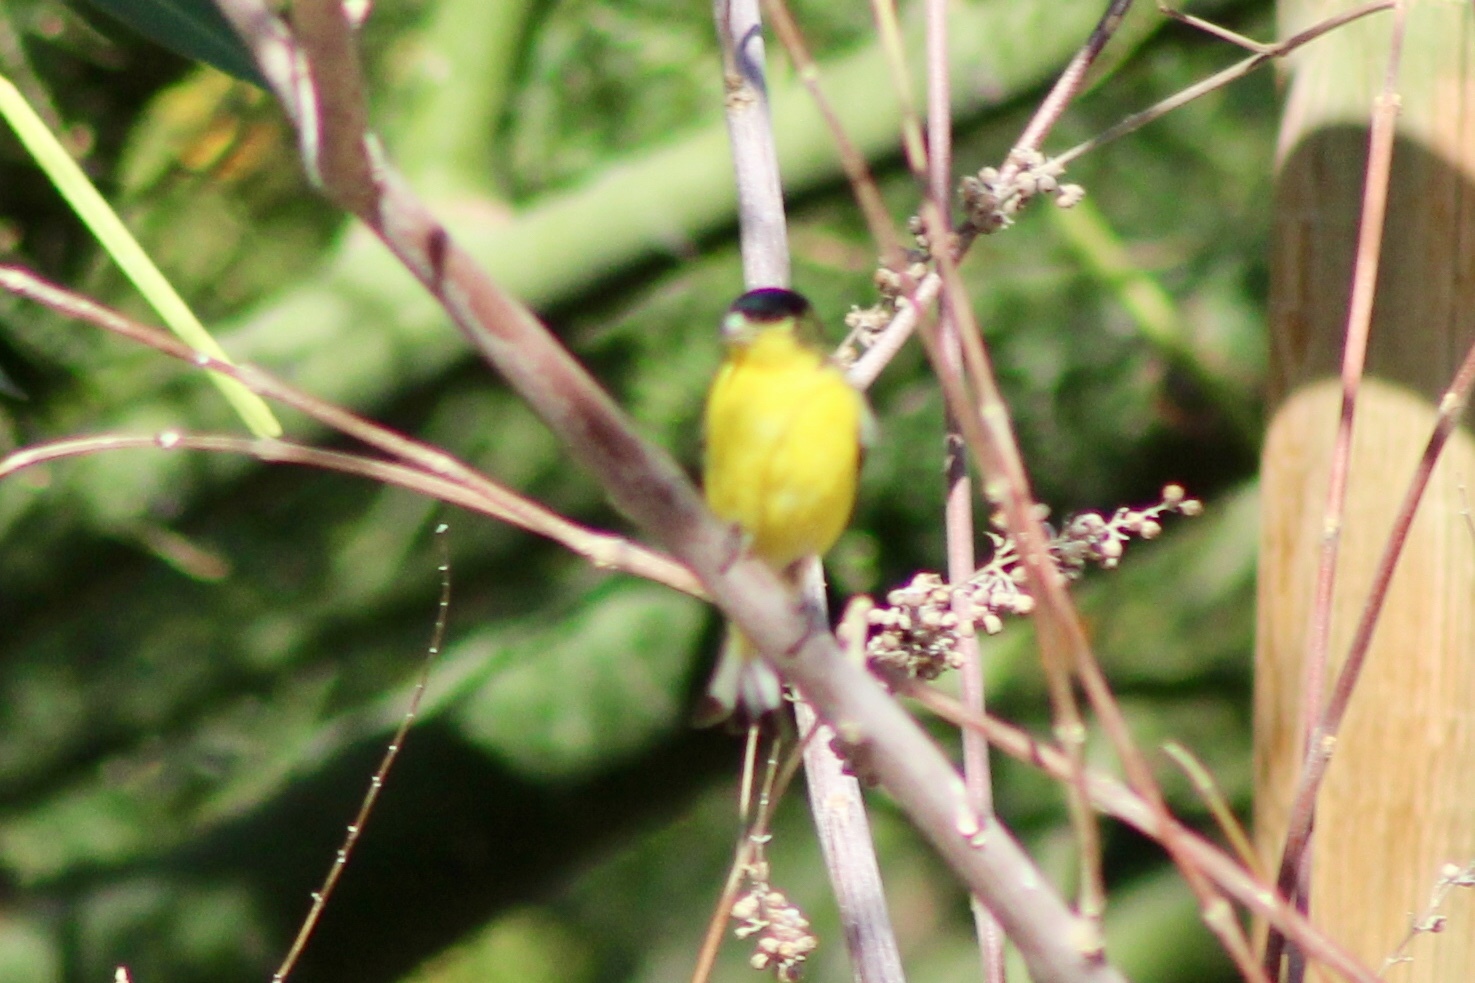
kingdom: Animalia
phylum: Chordata
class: Aves
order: Passeriformes
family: Fringillidae
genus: Spinus
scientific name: Spinus psaltria
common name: Lesser goldfinch
